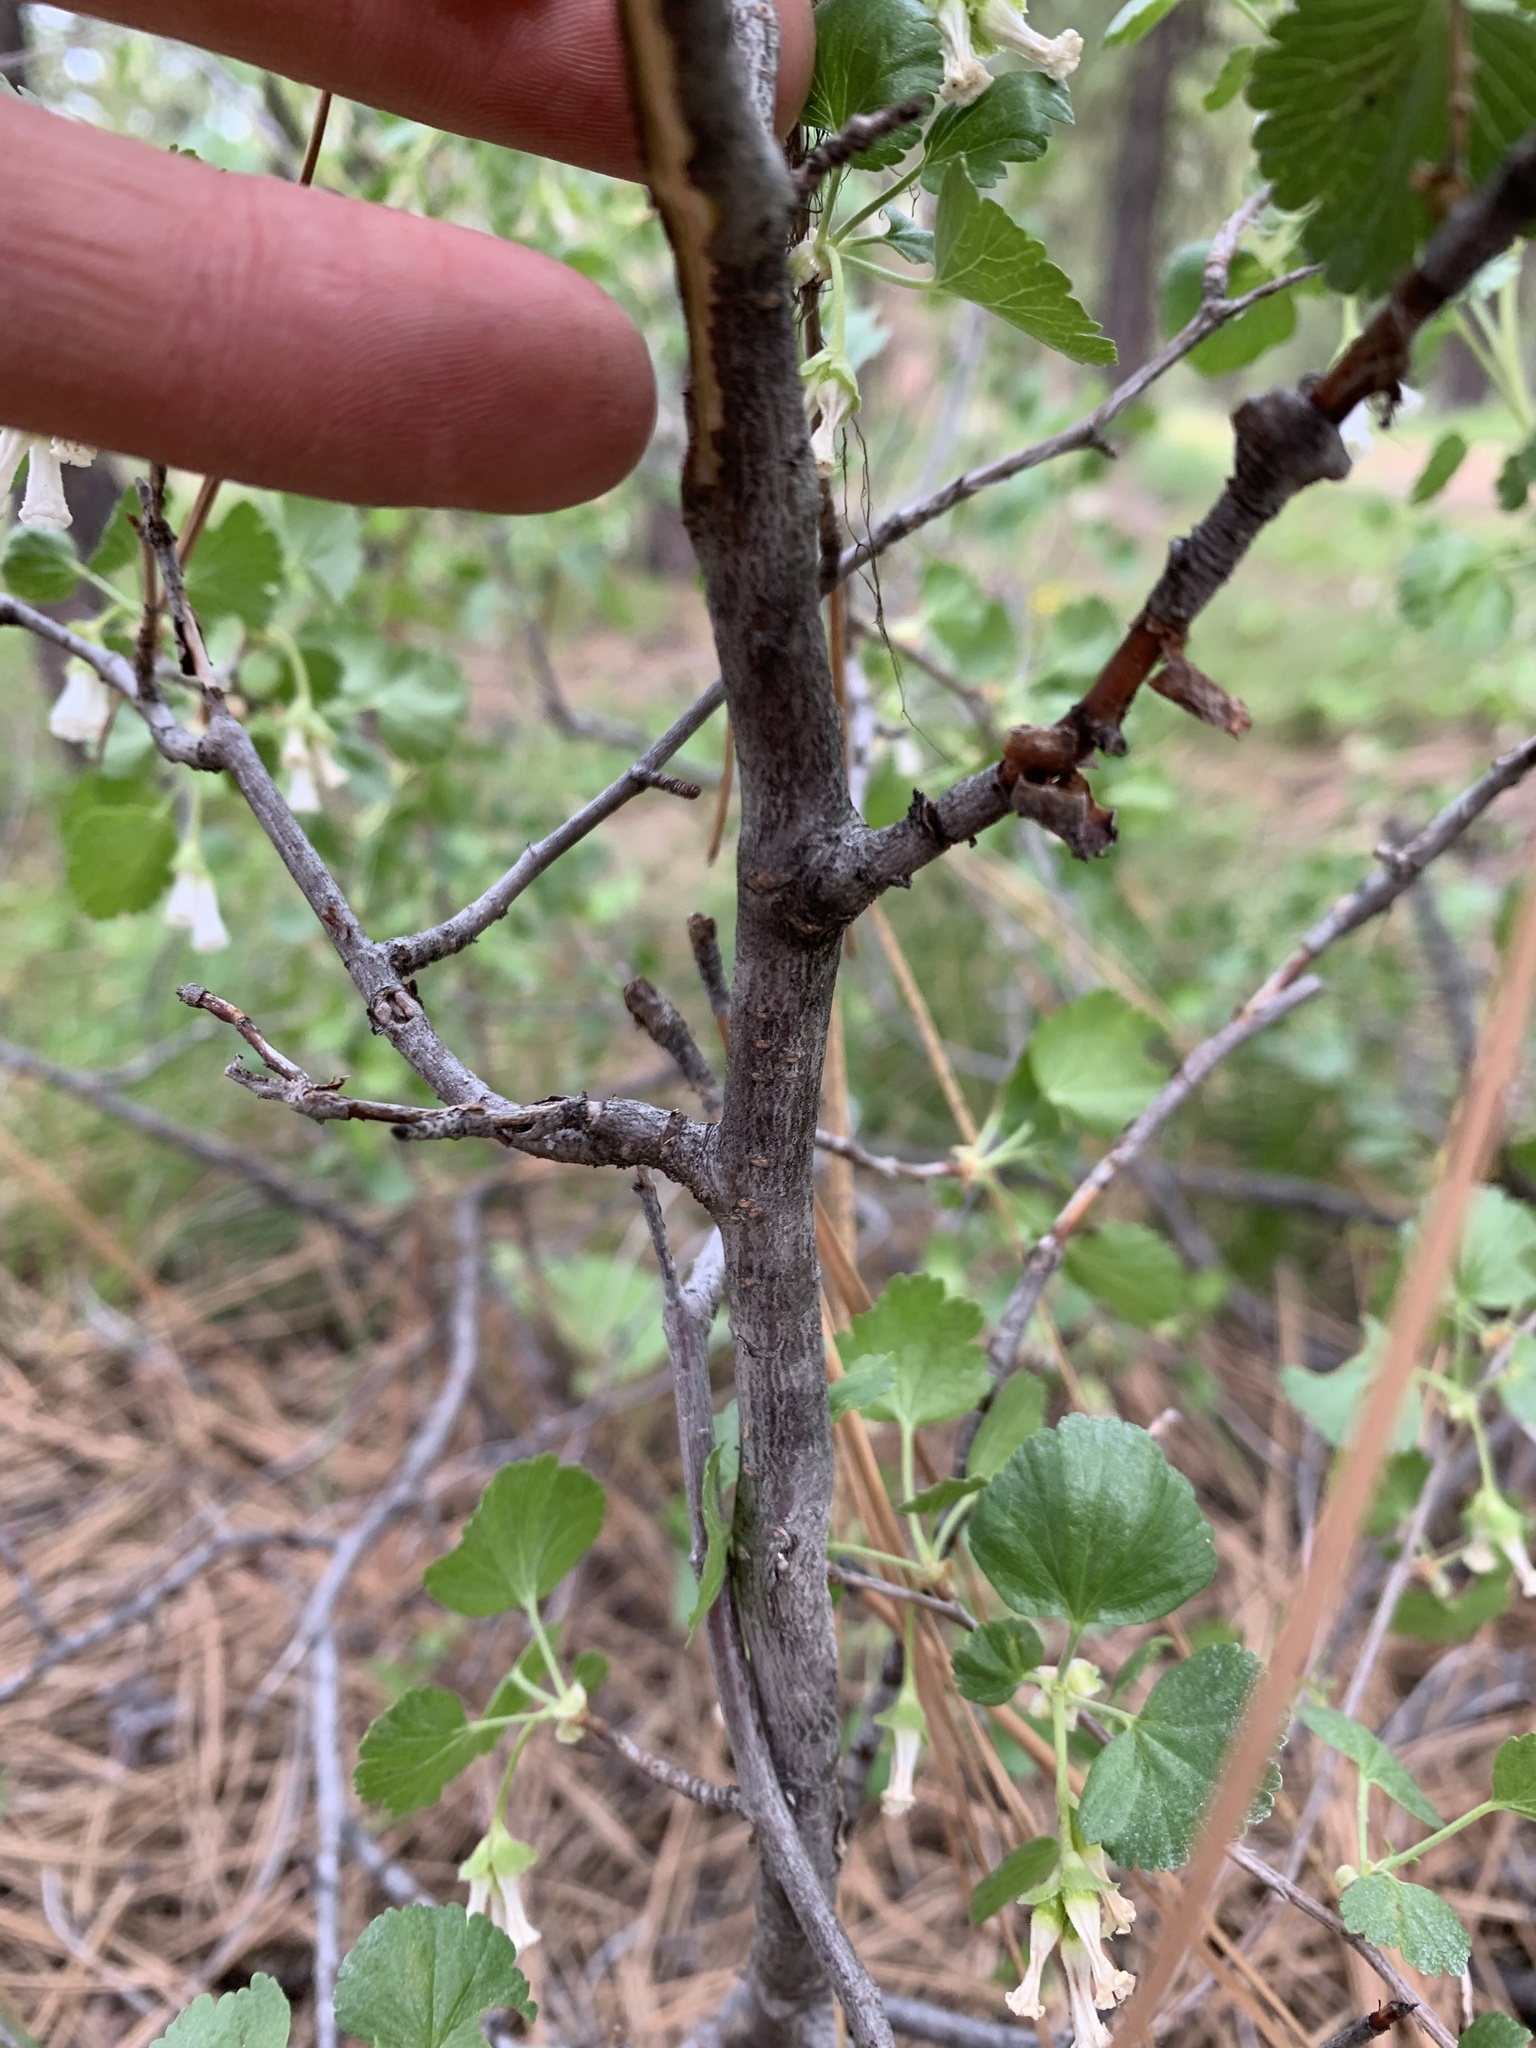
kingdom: Plantae
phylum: Tracheophyta
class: Magnoliopsida
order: Saxifragales
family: Grossulariaceae
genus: Ribes
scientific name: Ribes cereum
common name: Wax currant
